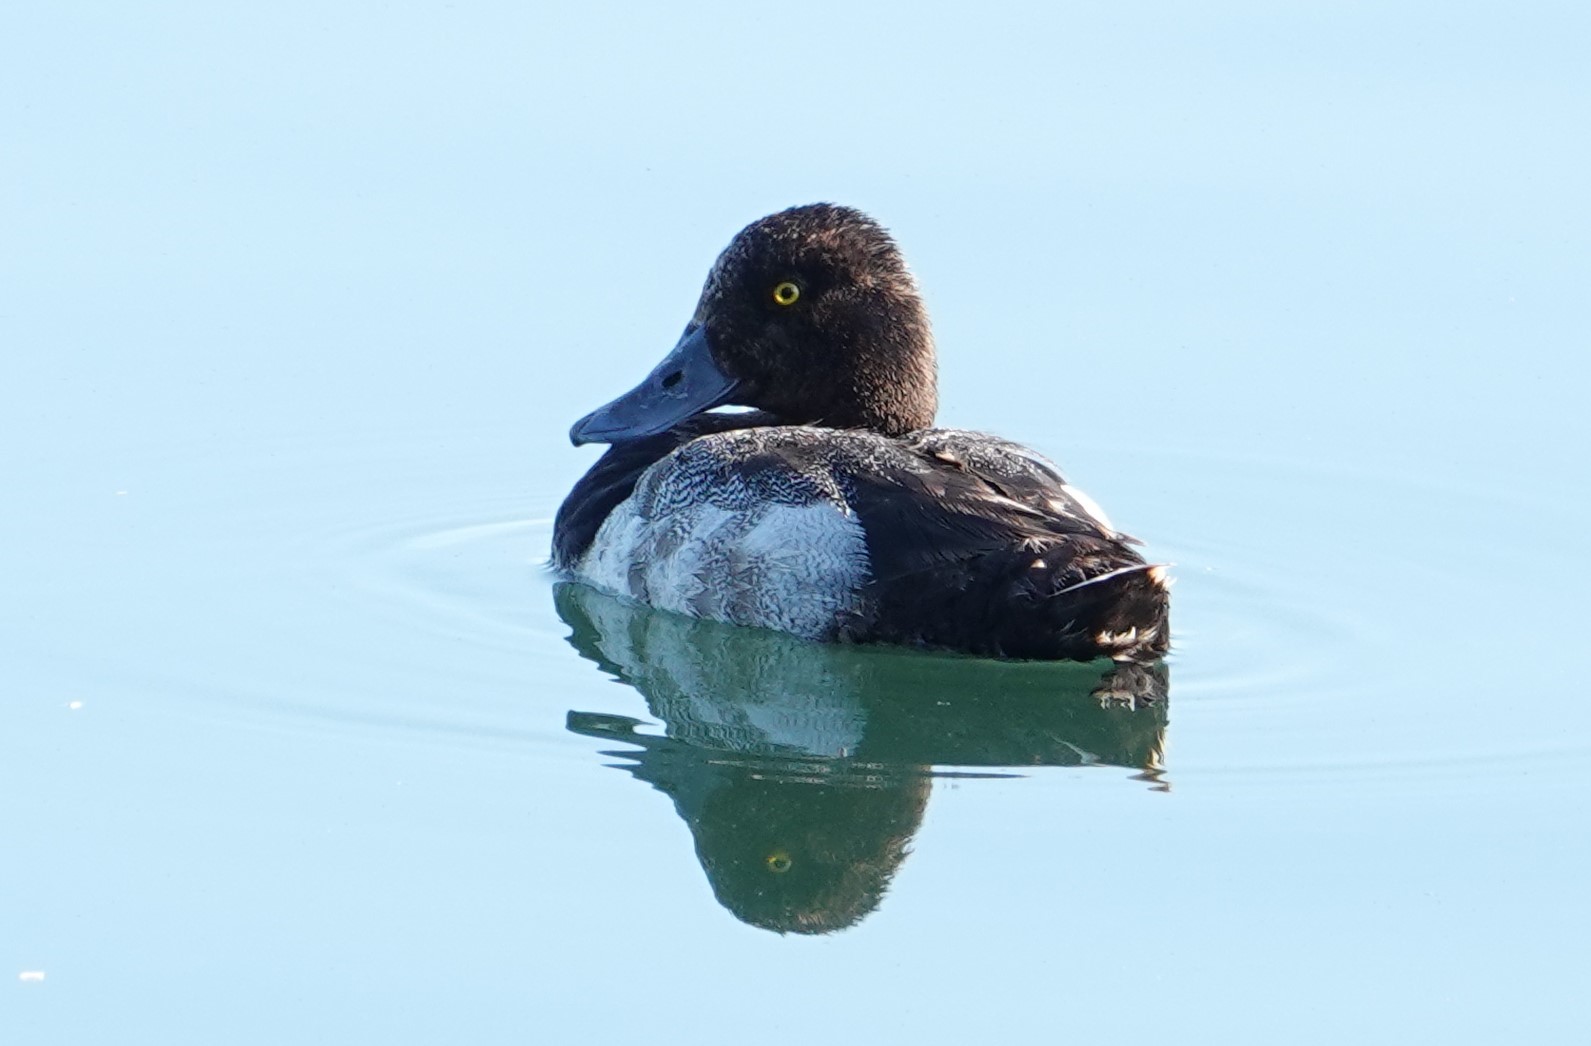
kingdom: Animalia
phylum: Chordata
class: Aves
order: Anseriformes
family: Anatidae
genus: Aythya
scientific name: Aythya marila
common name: Greater scaup
